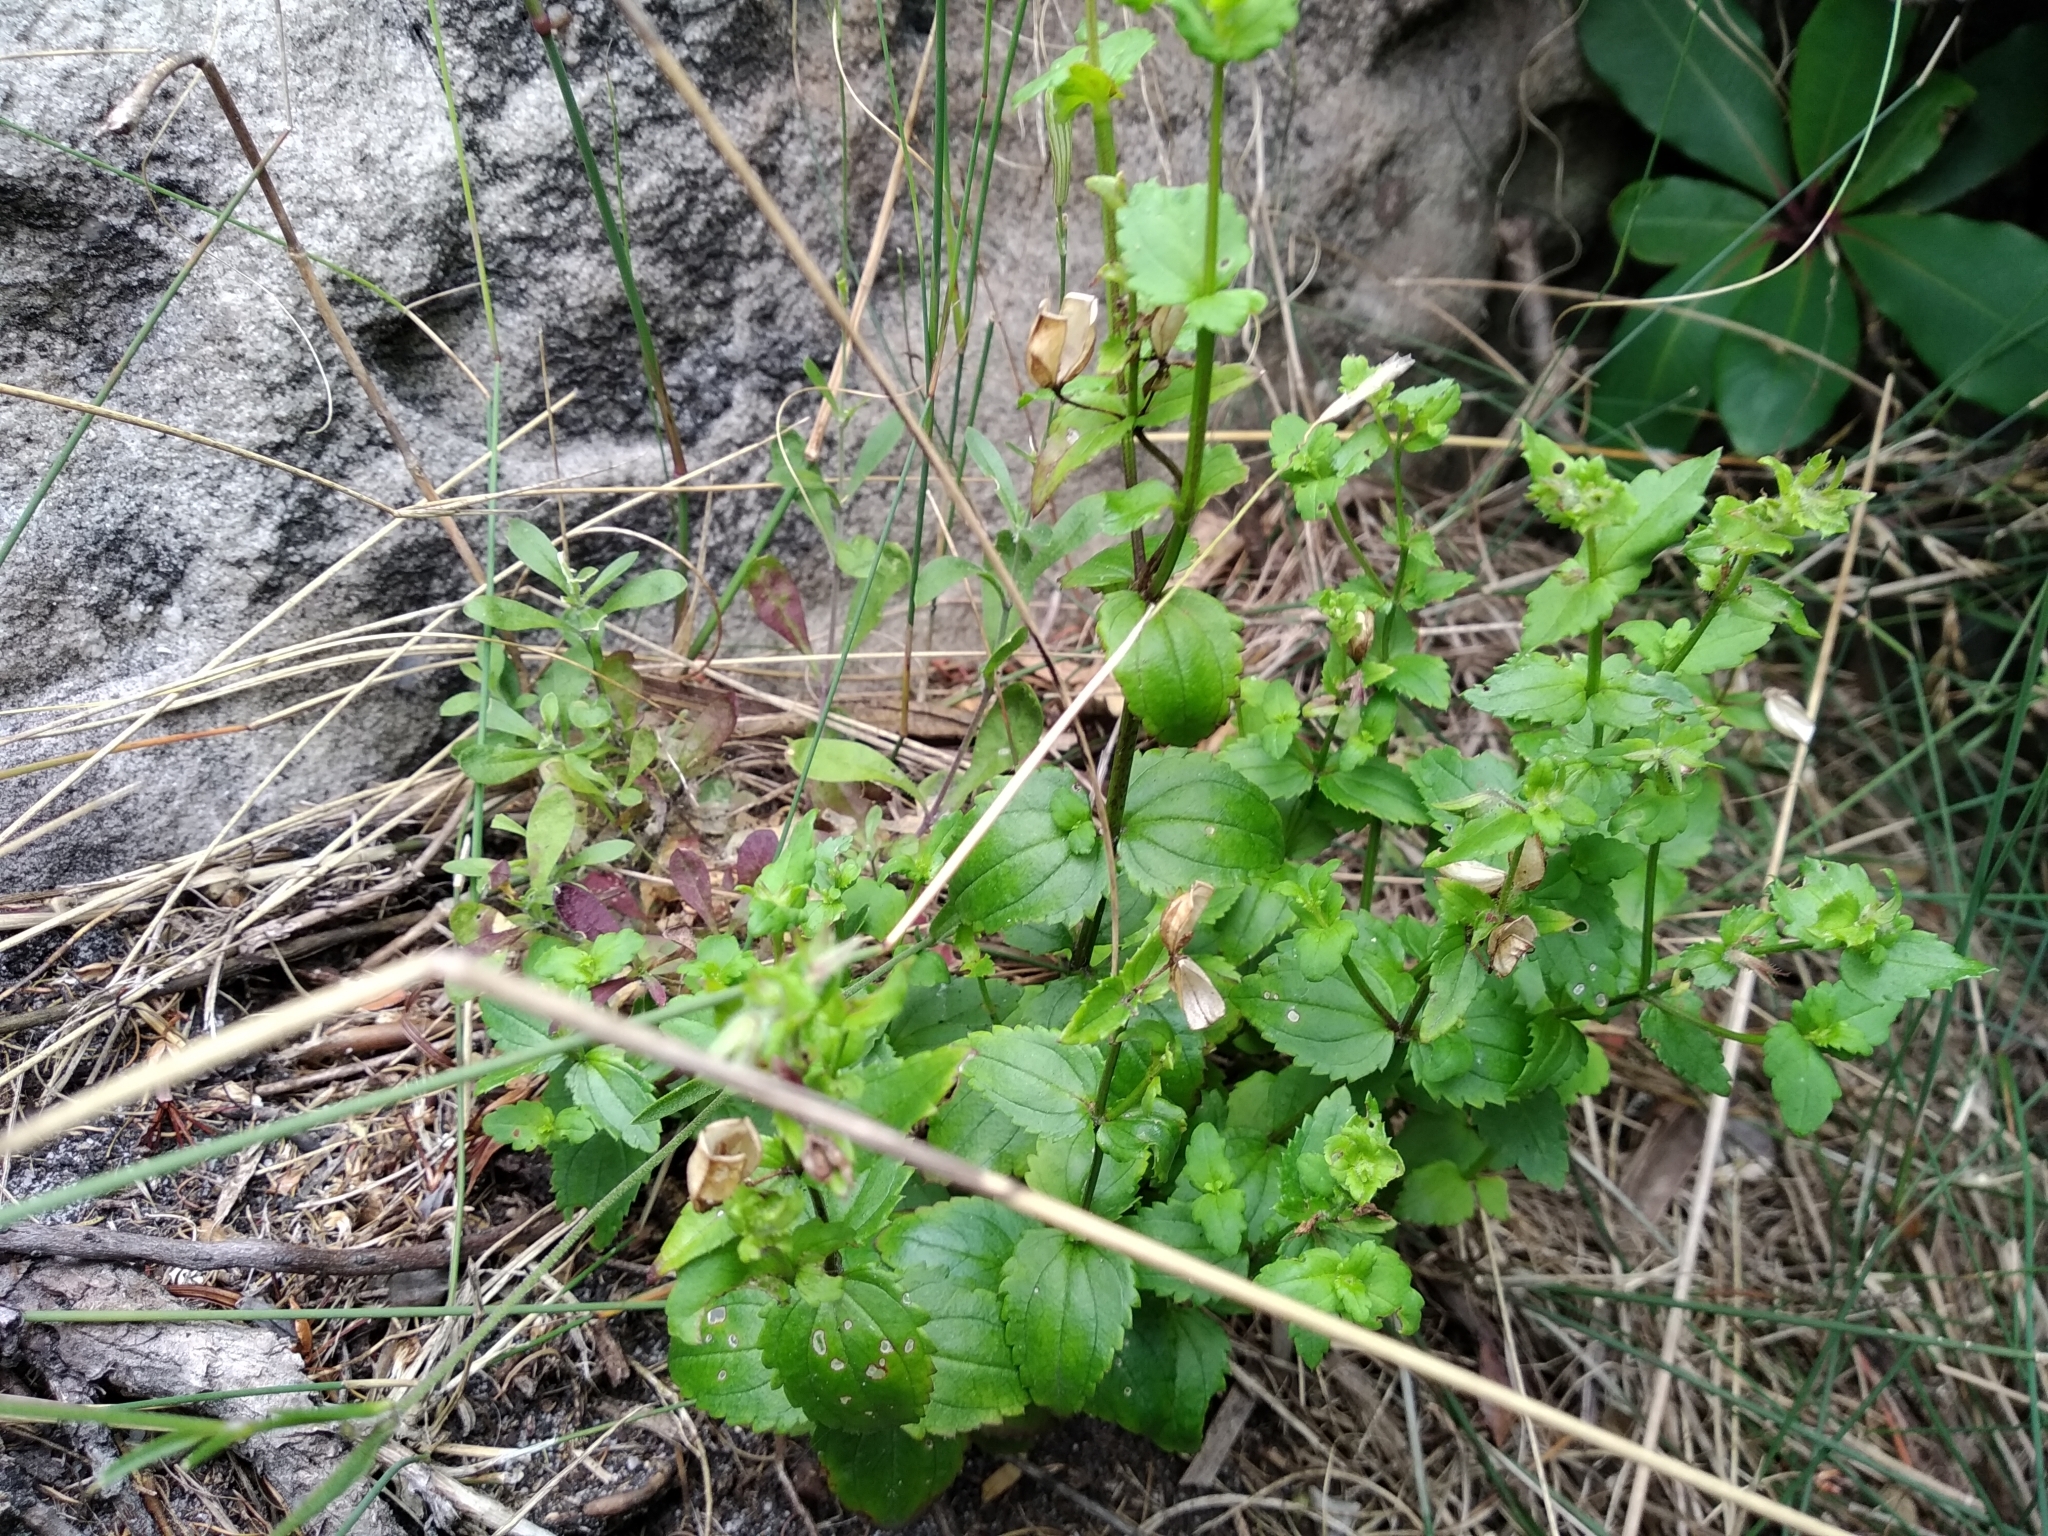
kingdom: Plantae
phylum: Tracheophyta
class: Magnoliopsida
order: Lamiales
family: Scrophulariaceae
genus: Nemesia
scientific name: Nemesia macrocarpa
